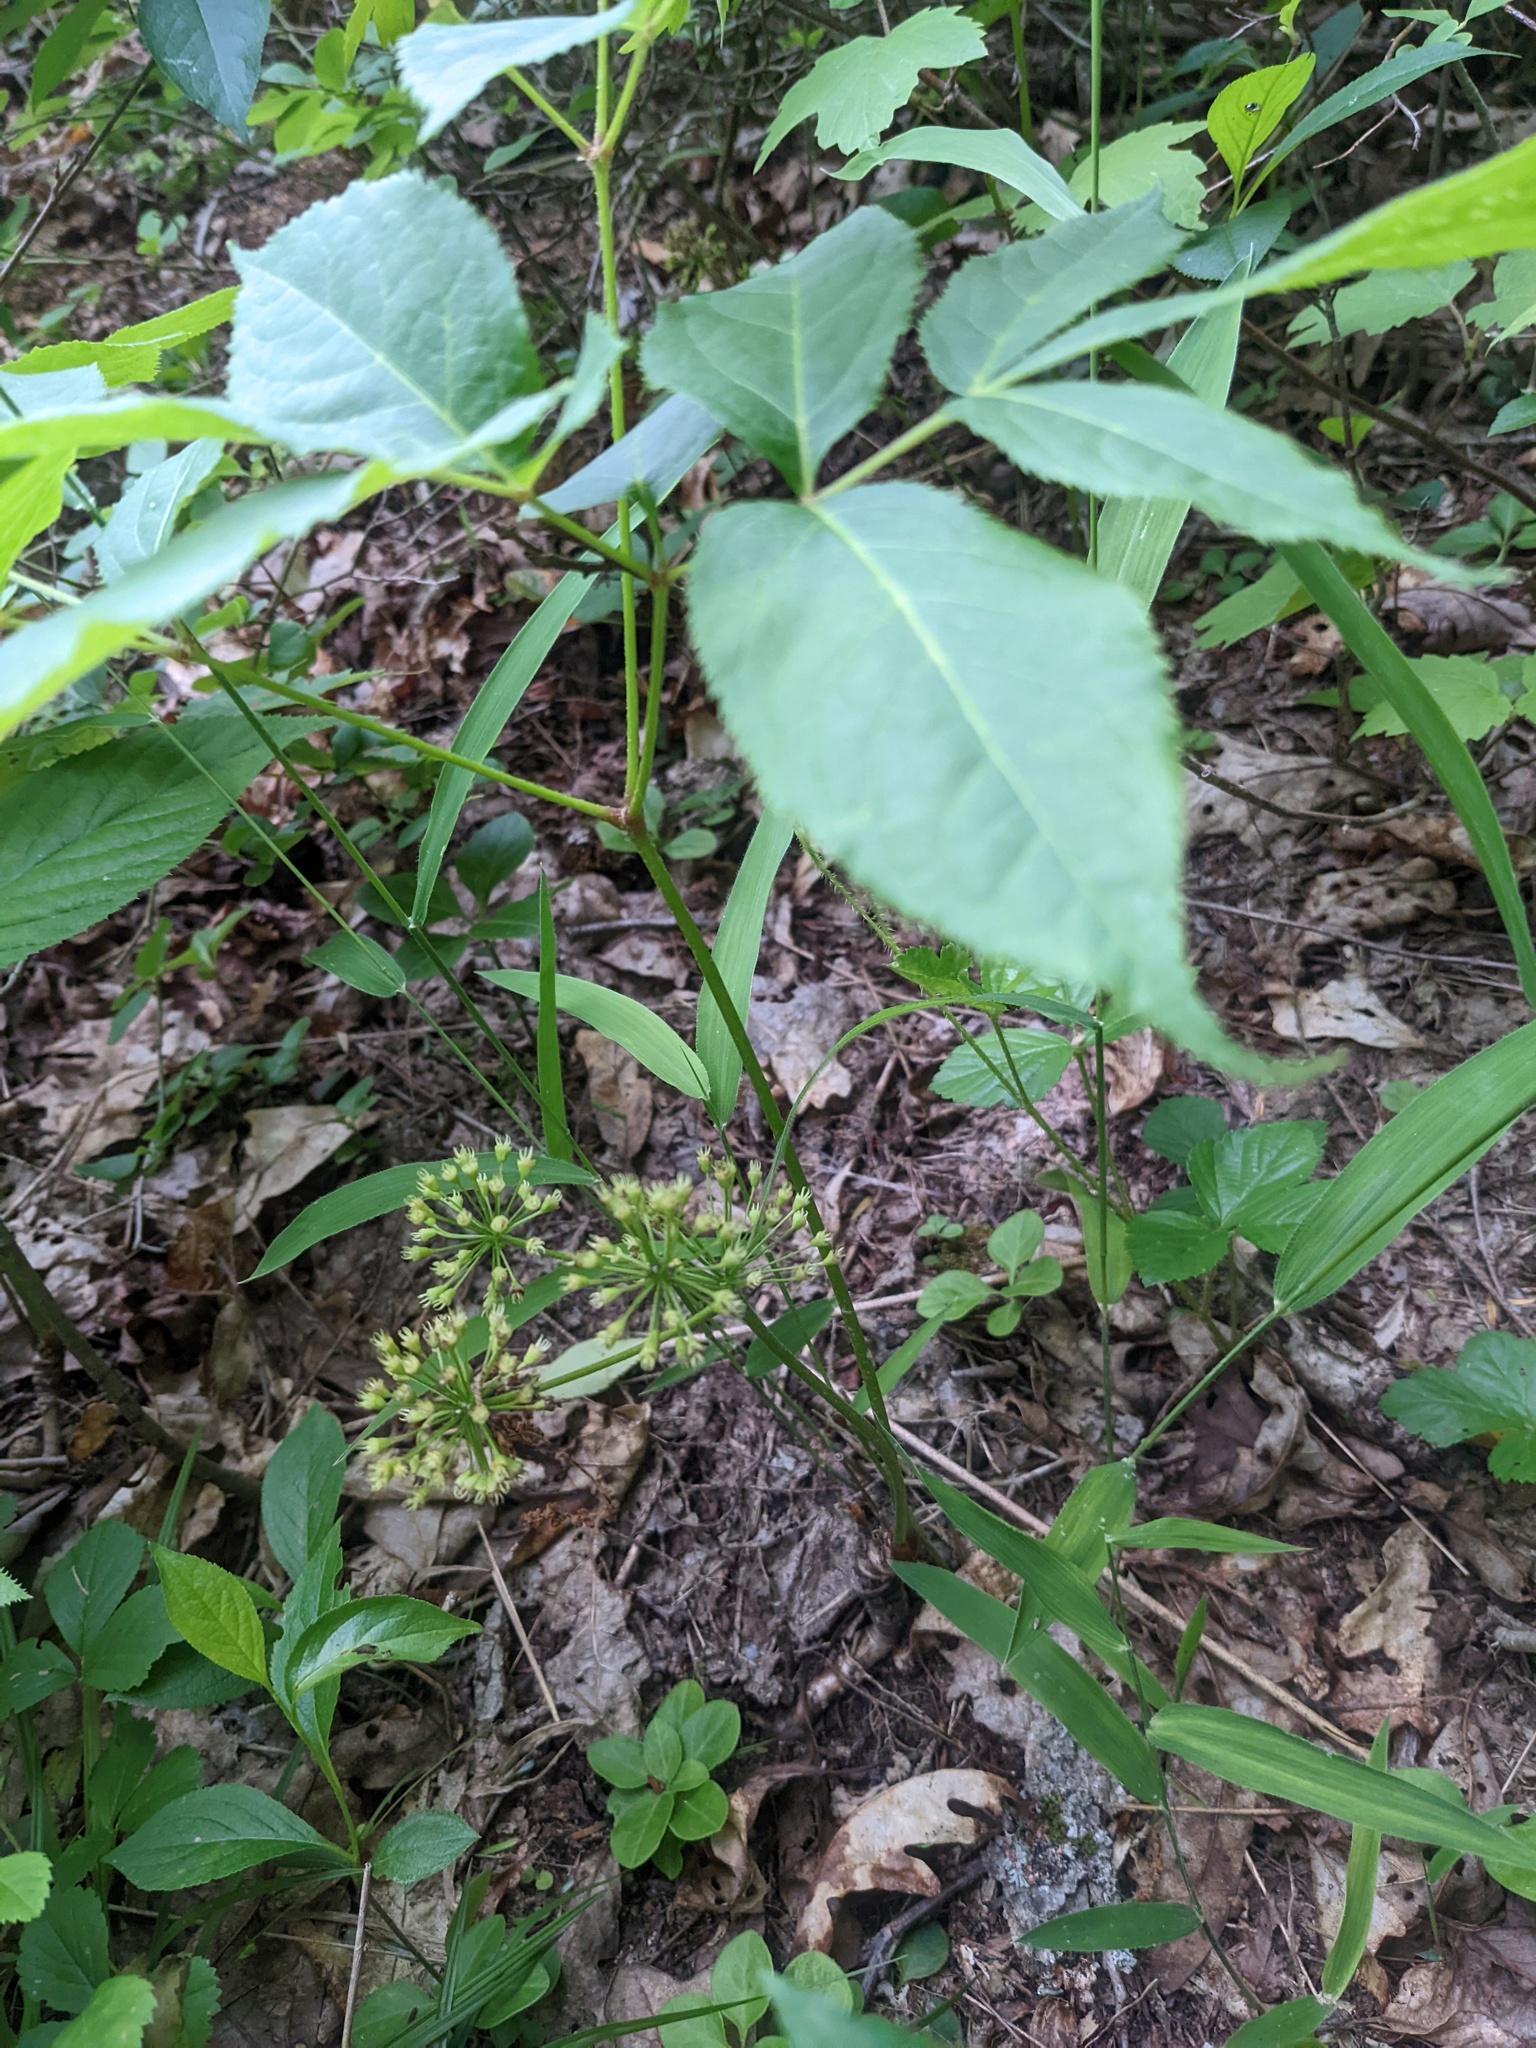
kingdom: Plantae
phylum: Tracheophyta
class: Magnoliopsida
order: Apiales
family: Araliaceae
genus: Aralia
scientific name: Aralia nudicaulis
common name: Wild sarsaparilla
